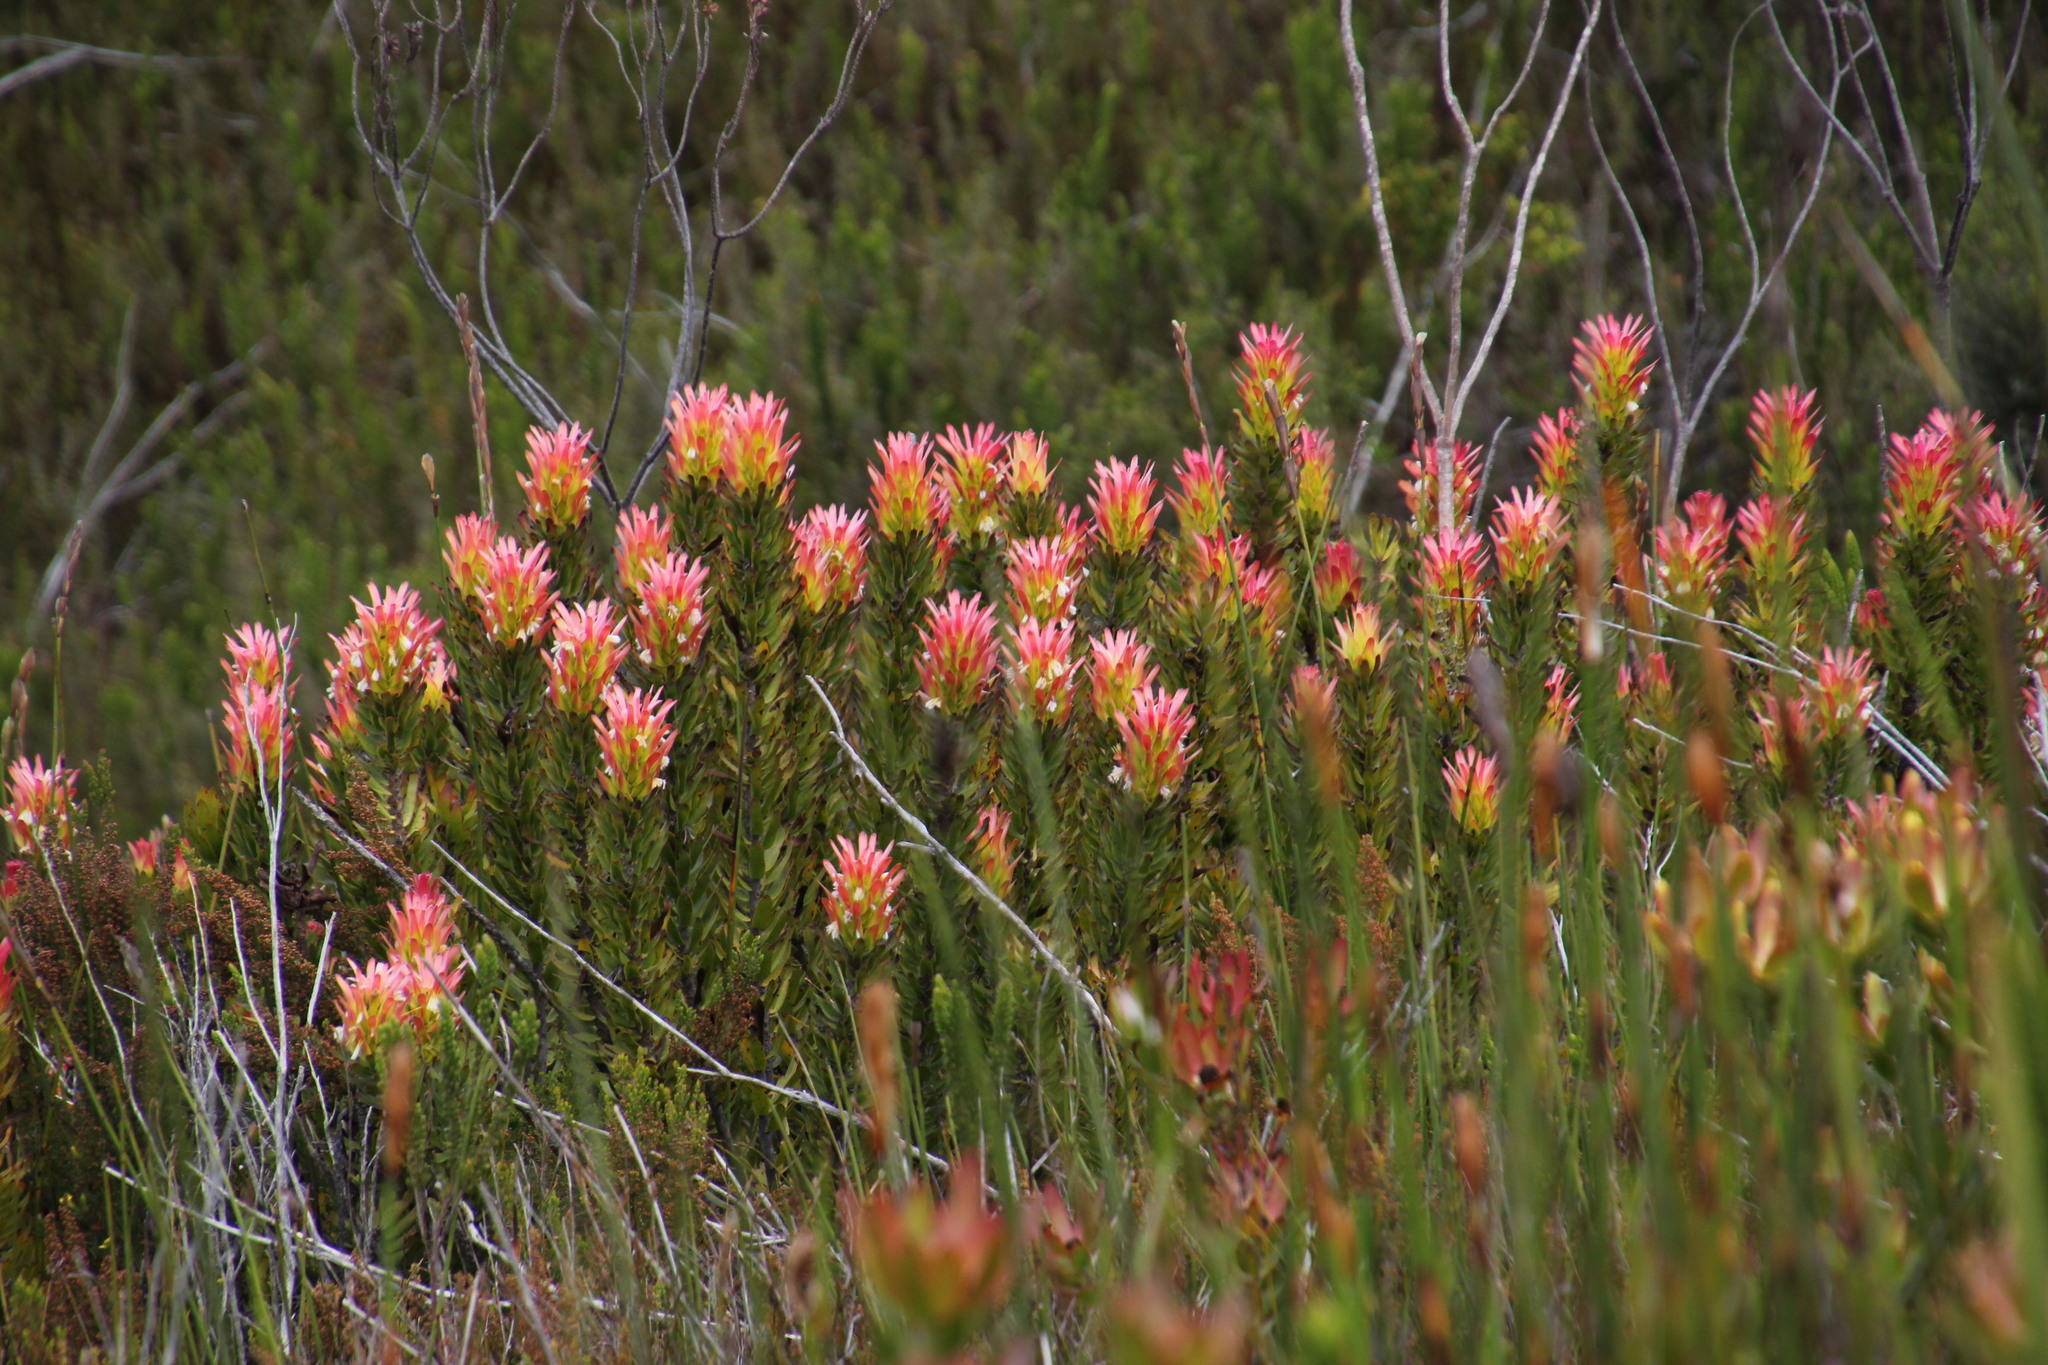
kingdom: Plantae
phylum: Tracheophyta
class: Magnoliopsida
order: Proteales
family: Proteaceae
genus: Mimetes
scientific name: Mimetes cucullatus
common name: Common pagoda
